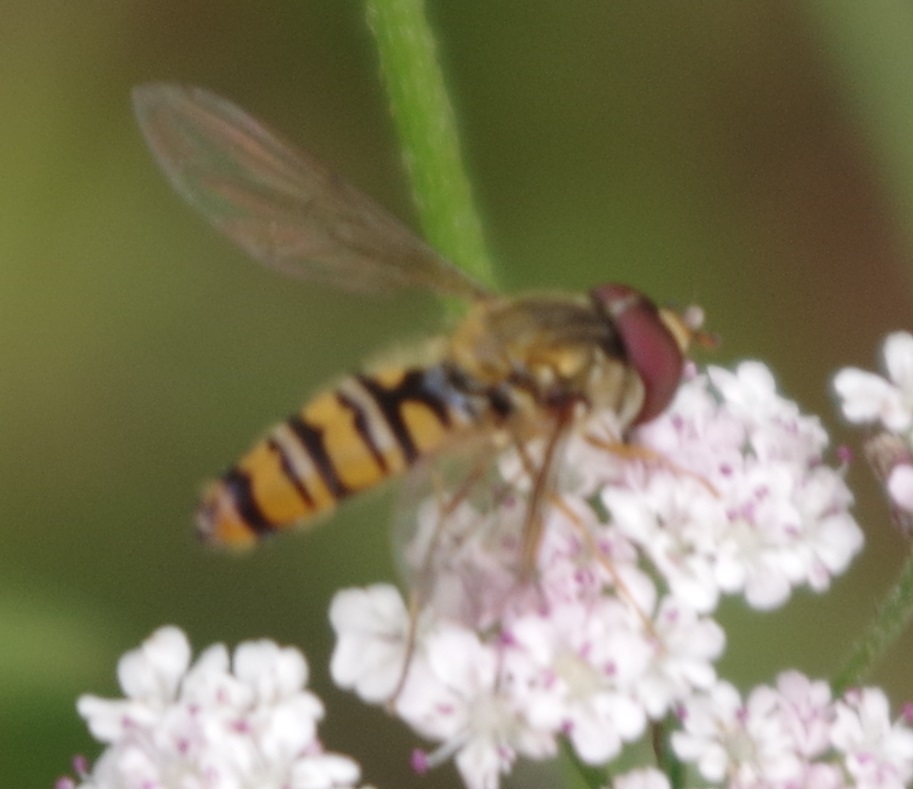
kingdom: Animalia
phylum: Arthropoda
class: Insecta
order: Diptera
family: Syrphidae
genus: Episyrphus
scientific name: Episyrphus balteatus
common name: Marmalade hoverfly
